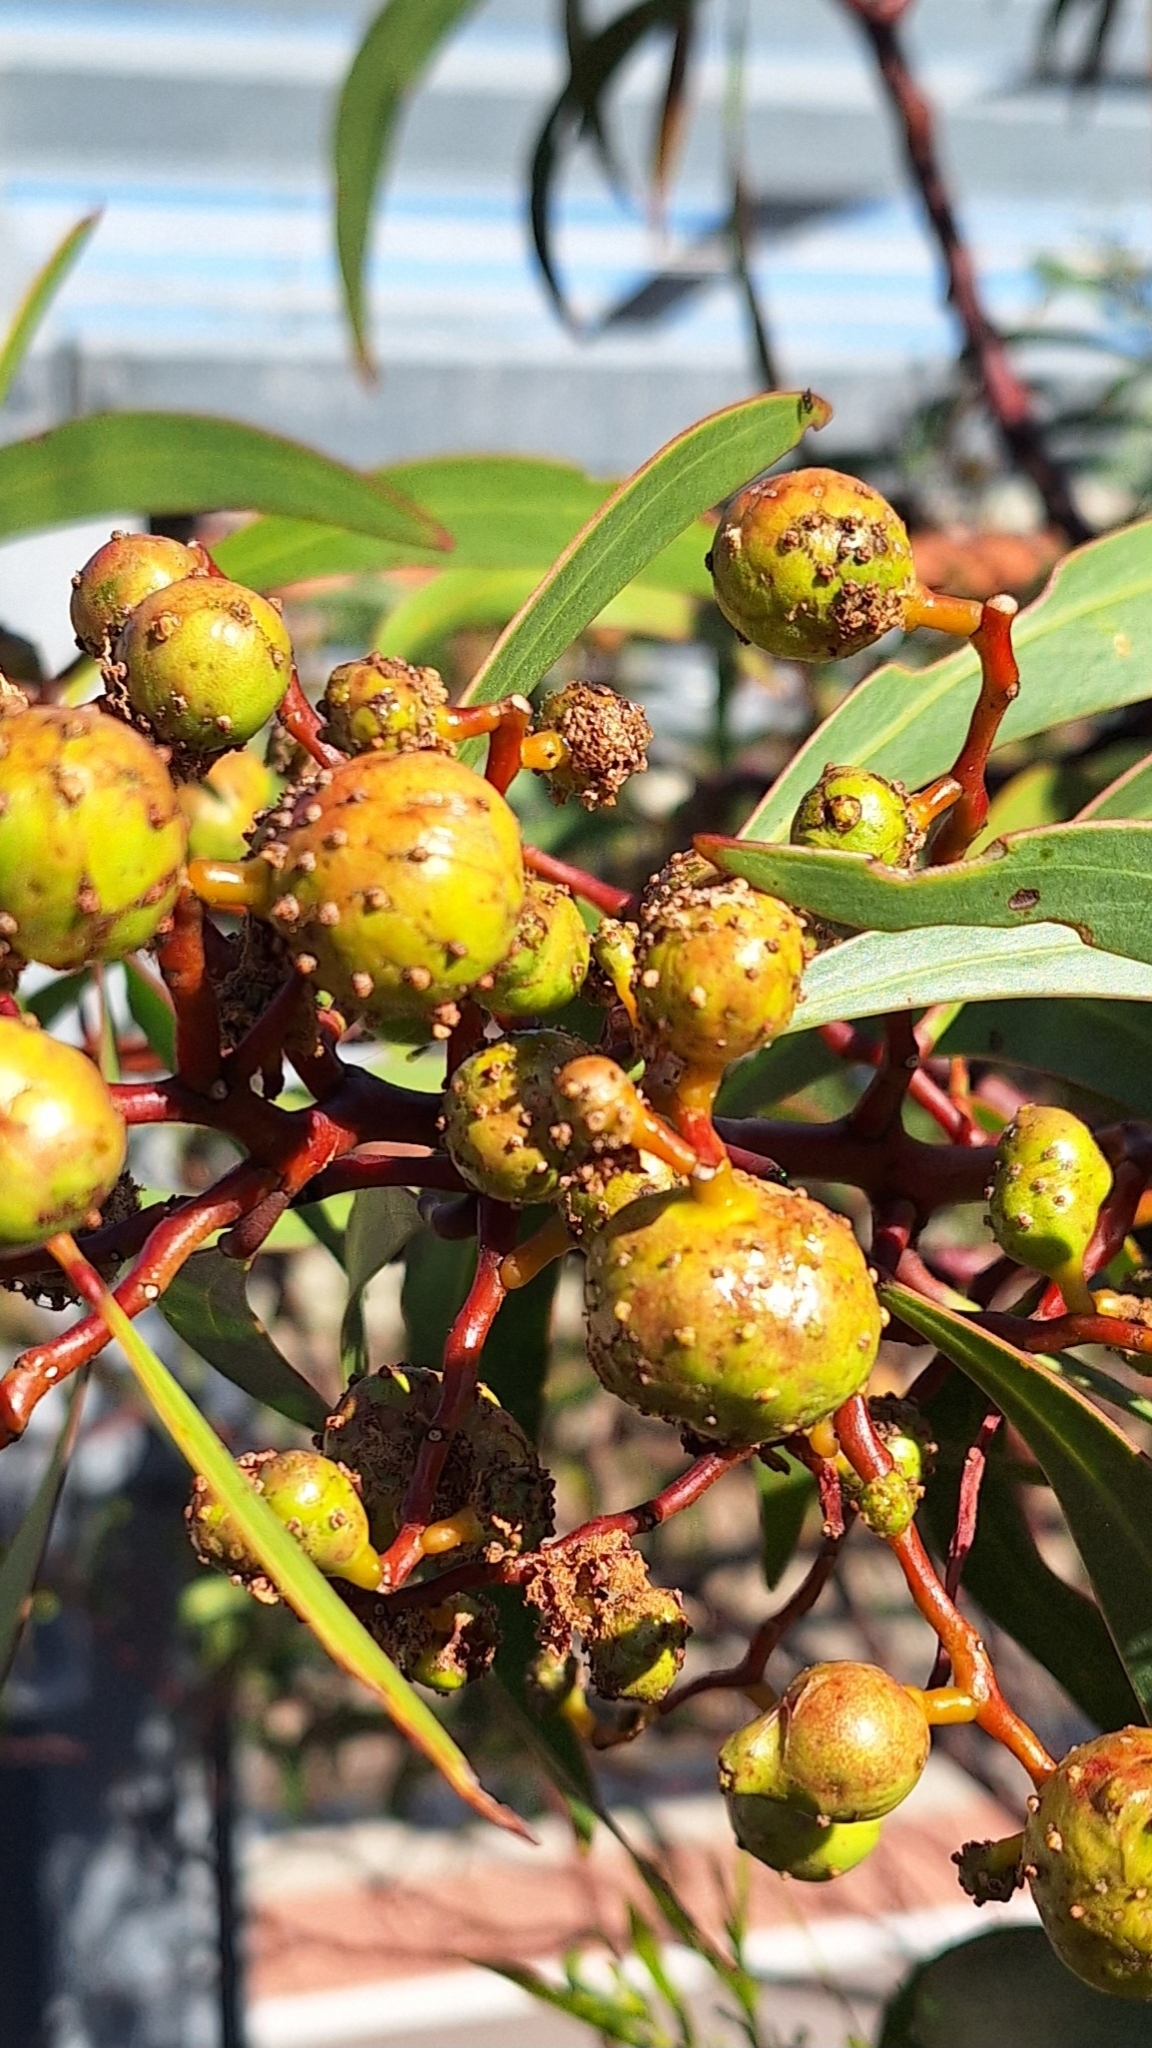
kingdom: Animalia
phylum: Arthropoda
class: Insecta
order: Hymenoptera
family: Pteromalidae
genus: Trichilogaster
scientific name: Trichilogaster signiventris
